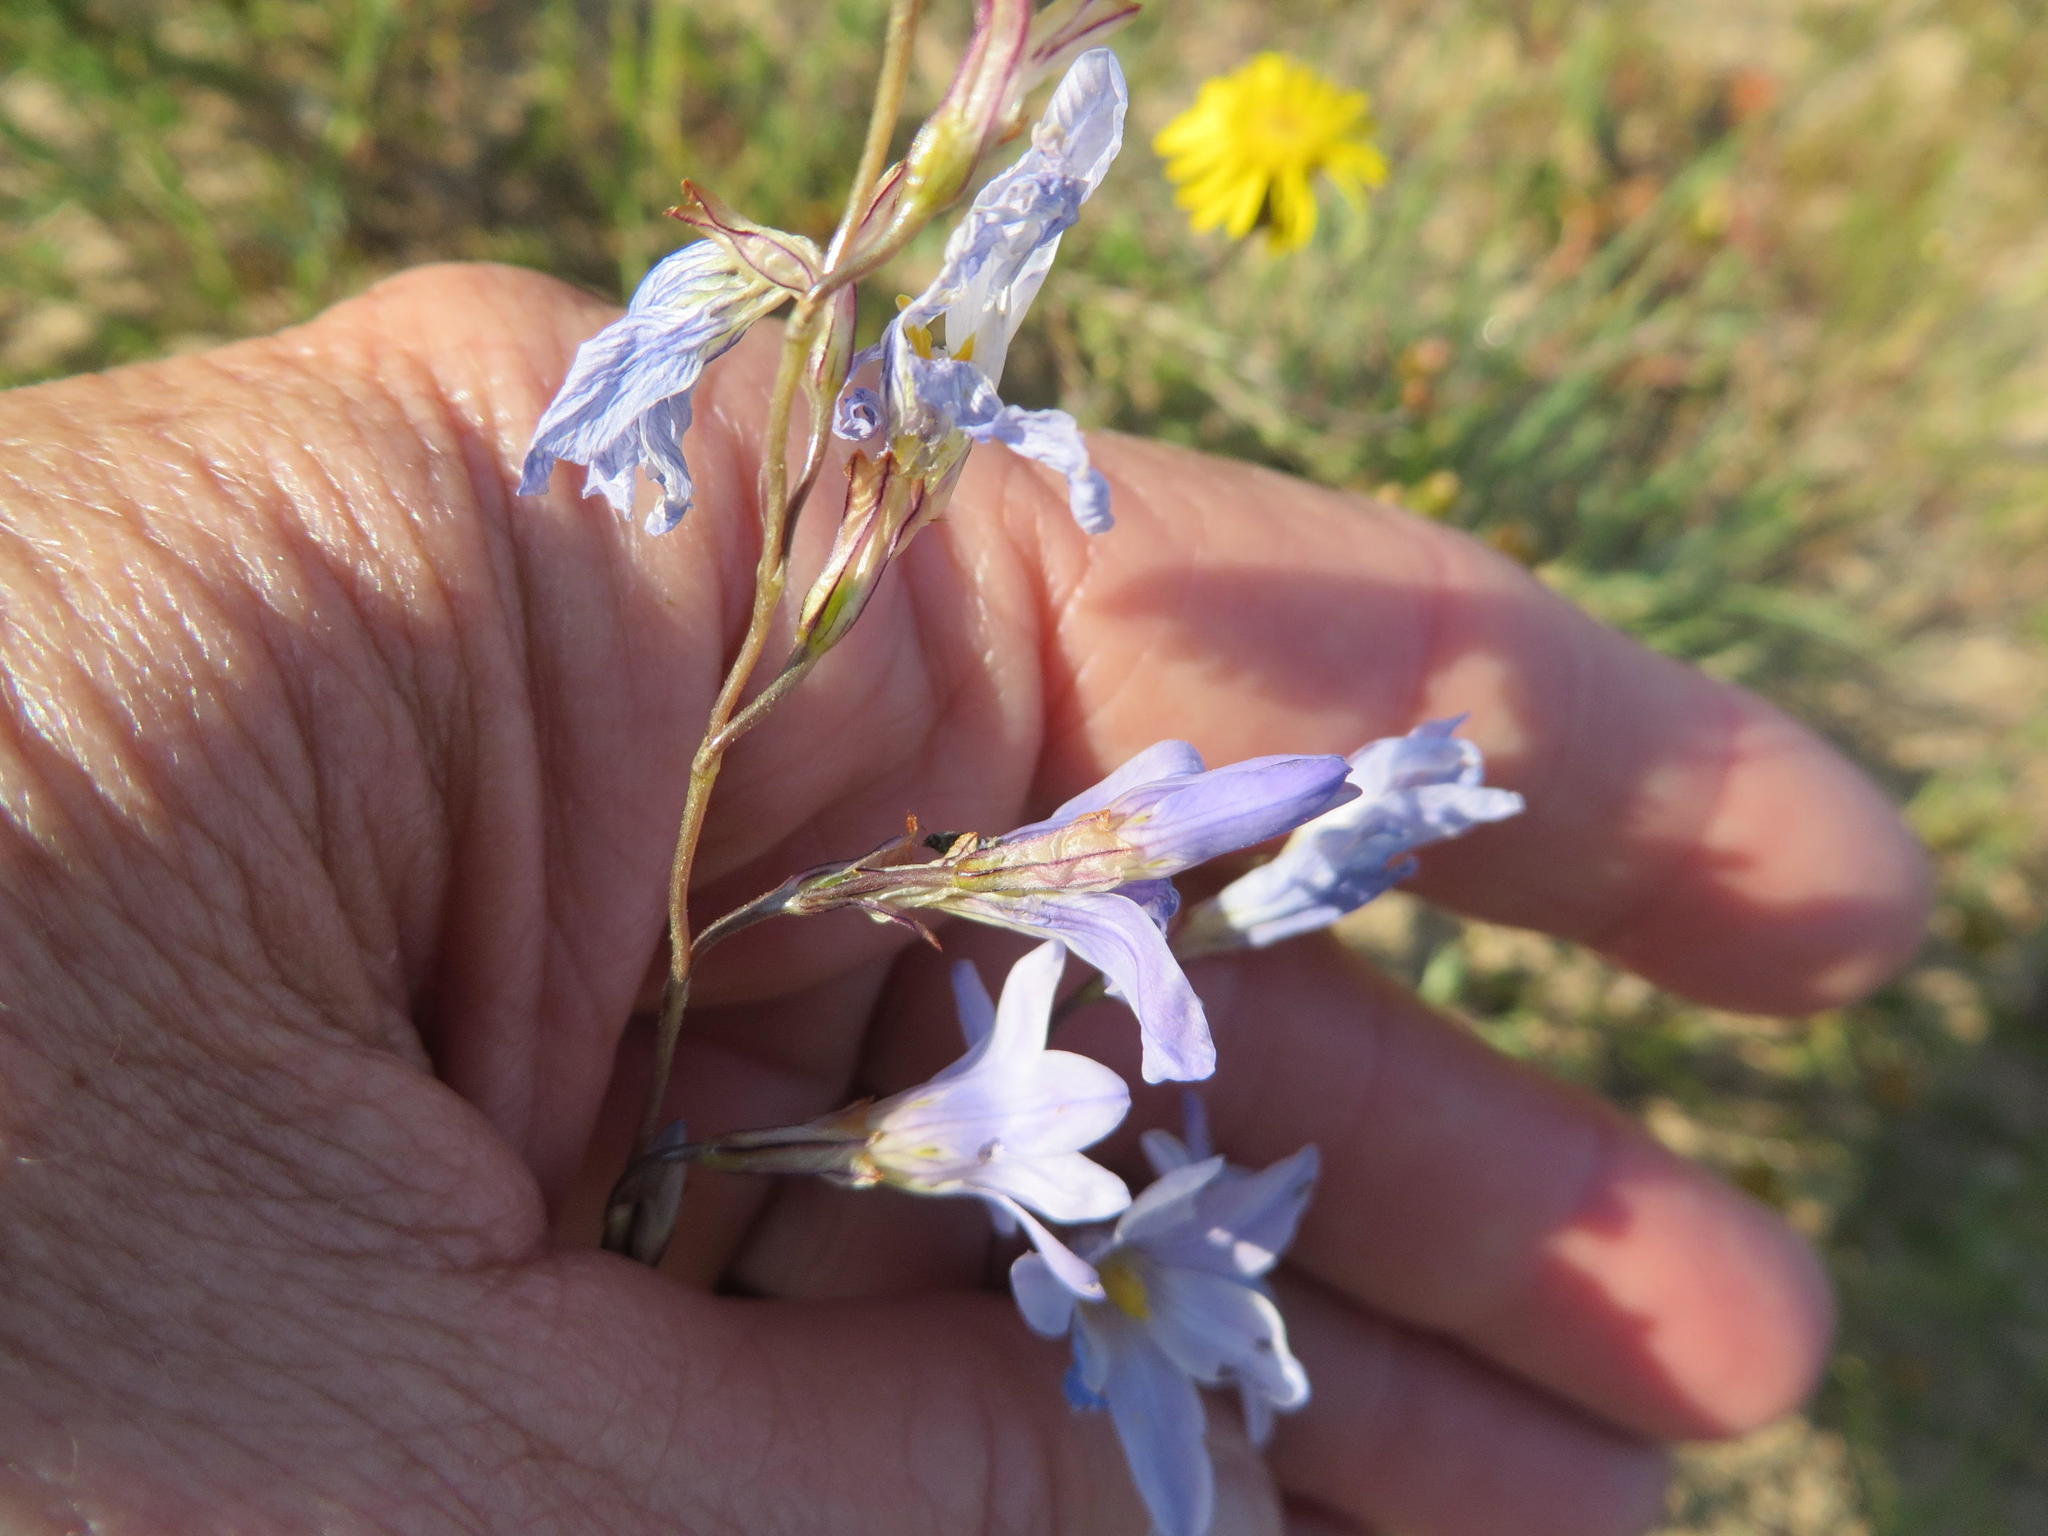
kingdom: Plantae
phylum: Tracheophyta
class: Liliopsida
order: Asparagales
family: Iridaceae
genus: Ixia
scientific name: Ixia rapunculoides
